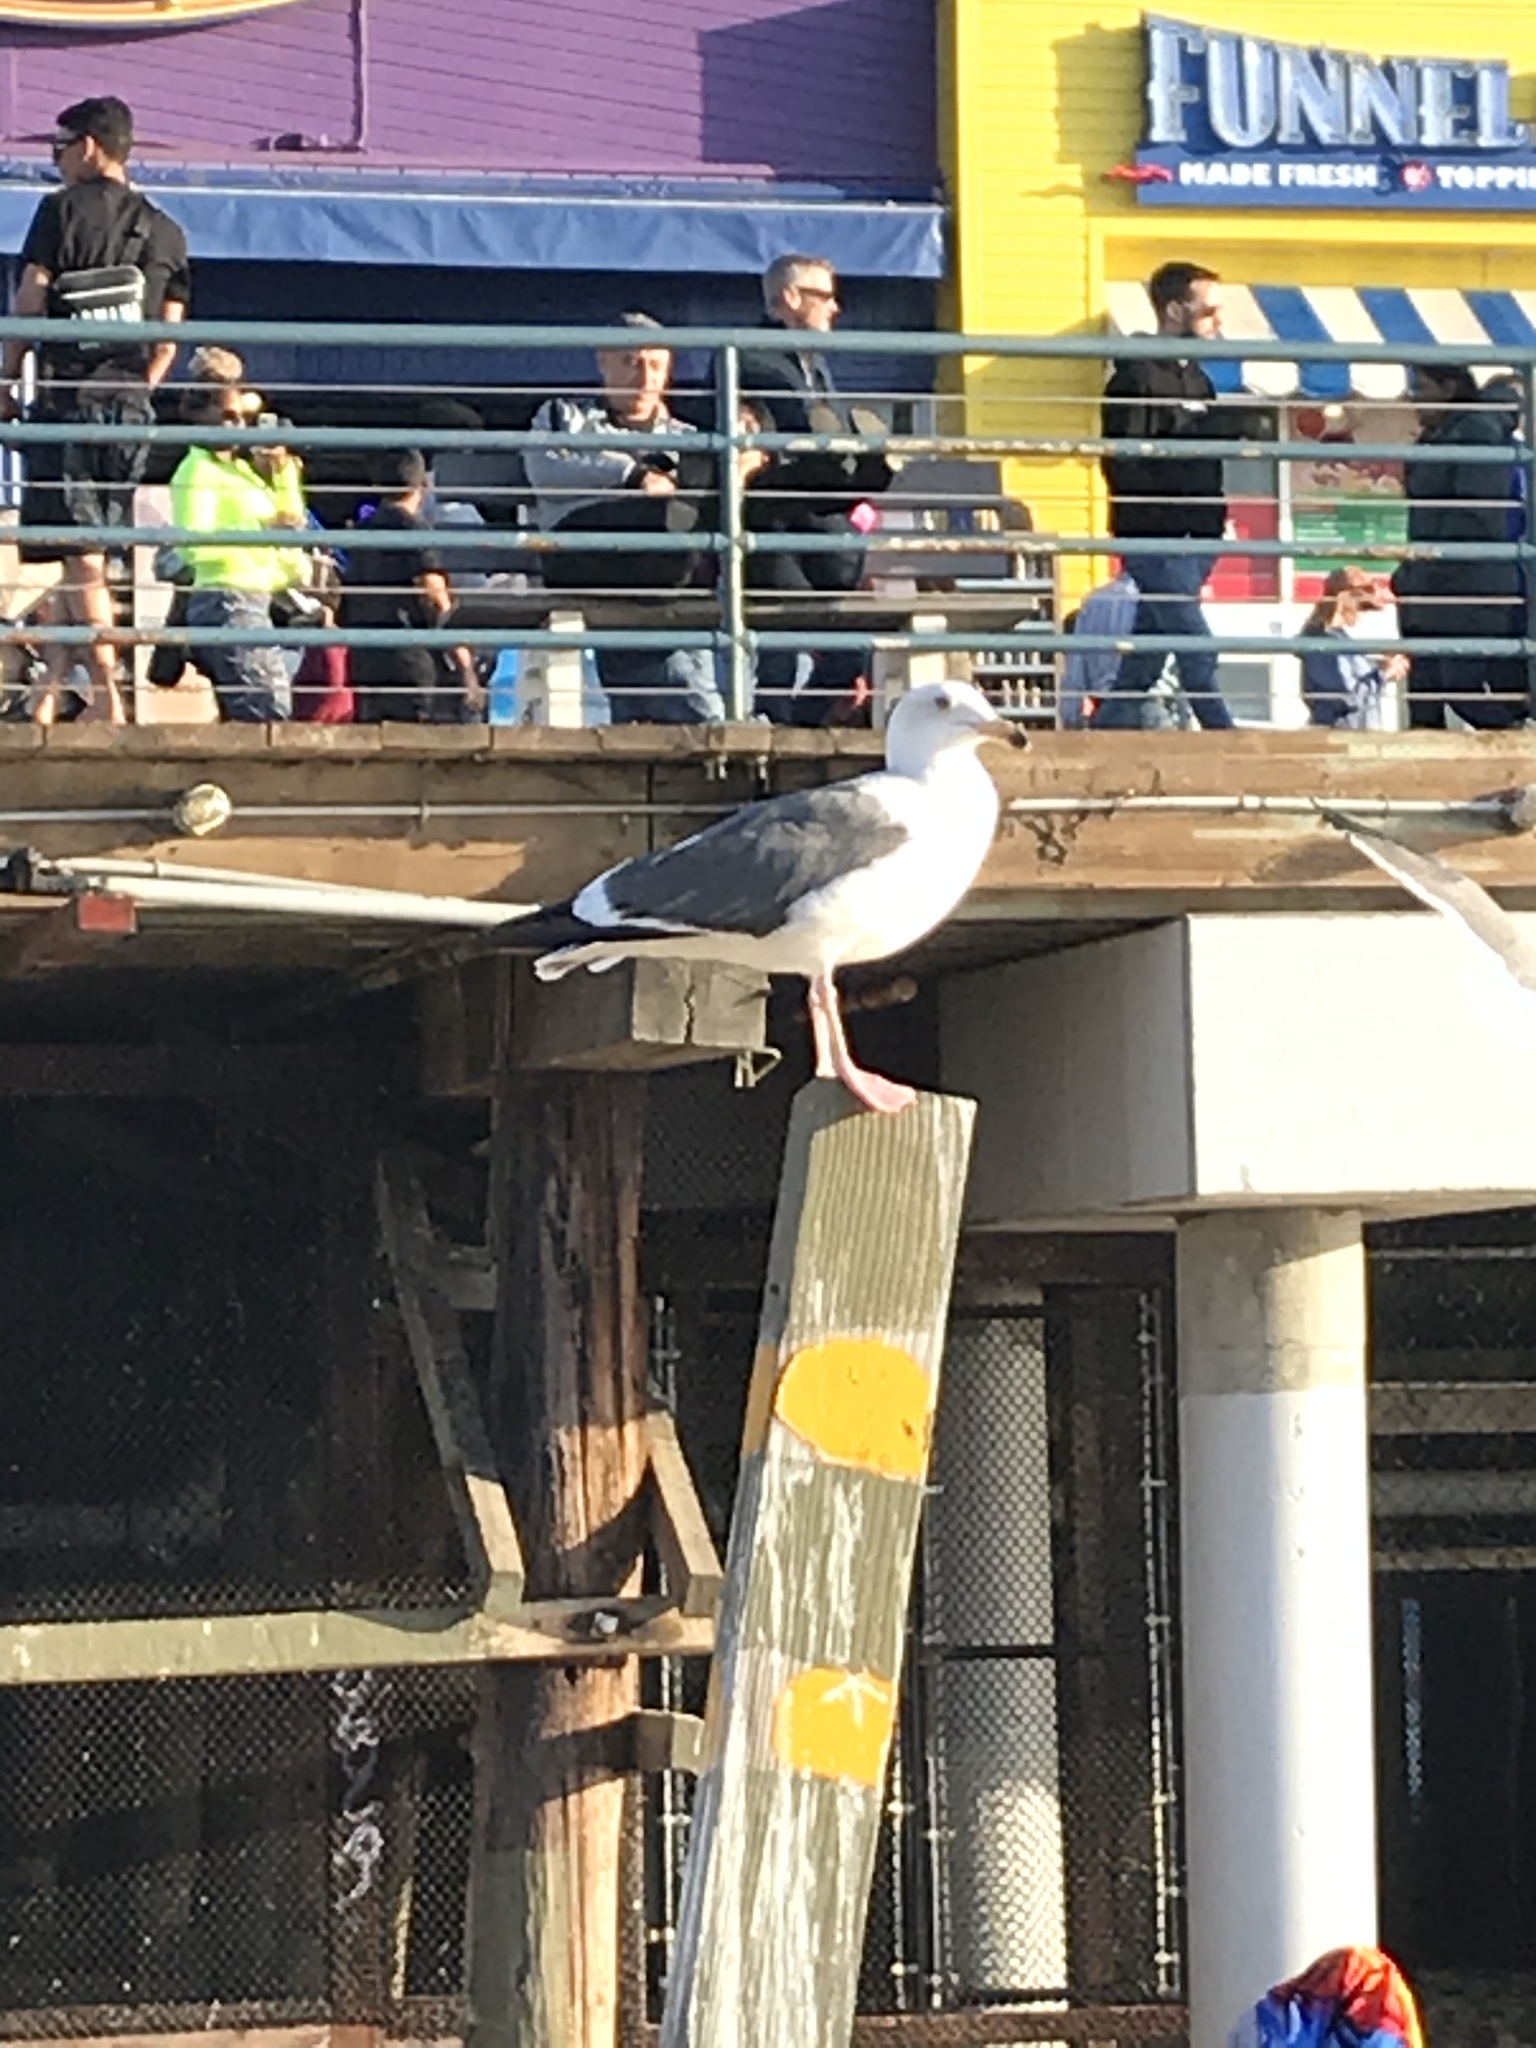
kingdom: Animalia
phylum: Chordata
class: Aves
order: Charadriiformes
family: Laridae
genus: Larus
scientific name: Larus occidentalis
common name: Western gull
